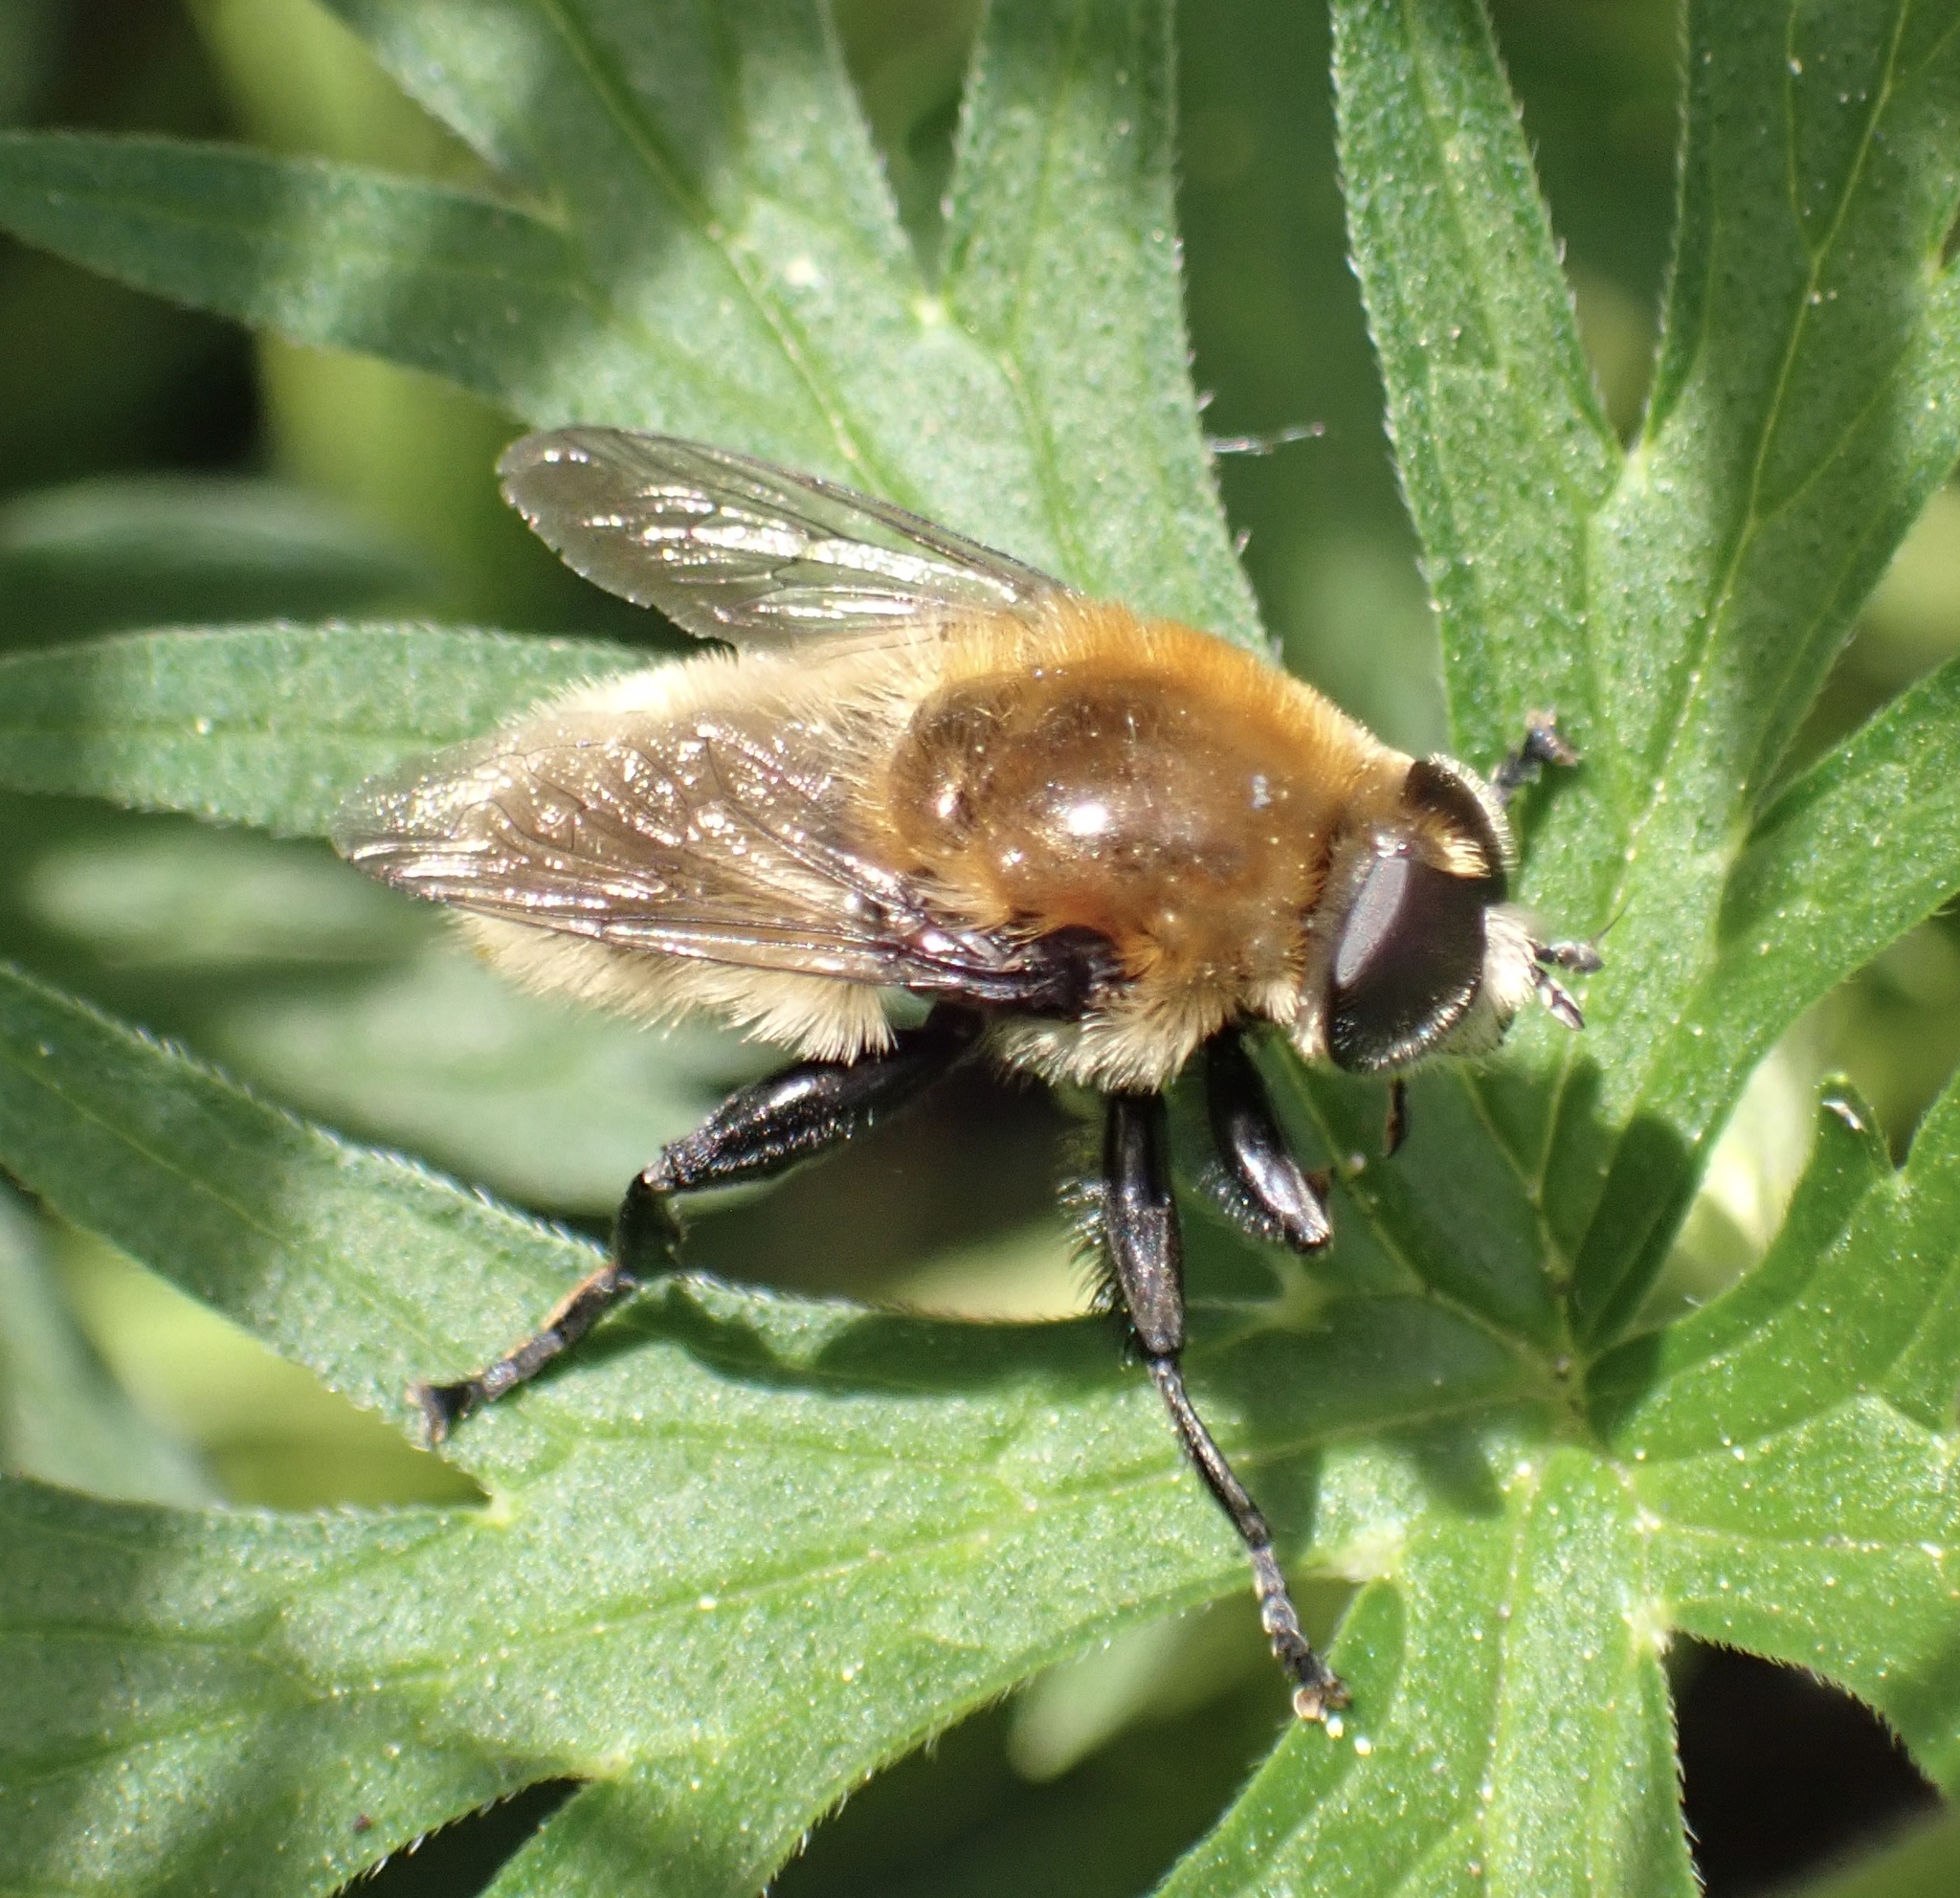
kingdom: Animalia
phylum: Arthropoda
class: Insecta
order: Diptera
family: Syrphidae
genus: Merodon
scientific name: Merodon equestris
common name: Greater bulb-fly
